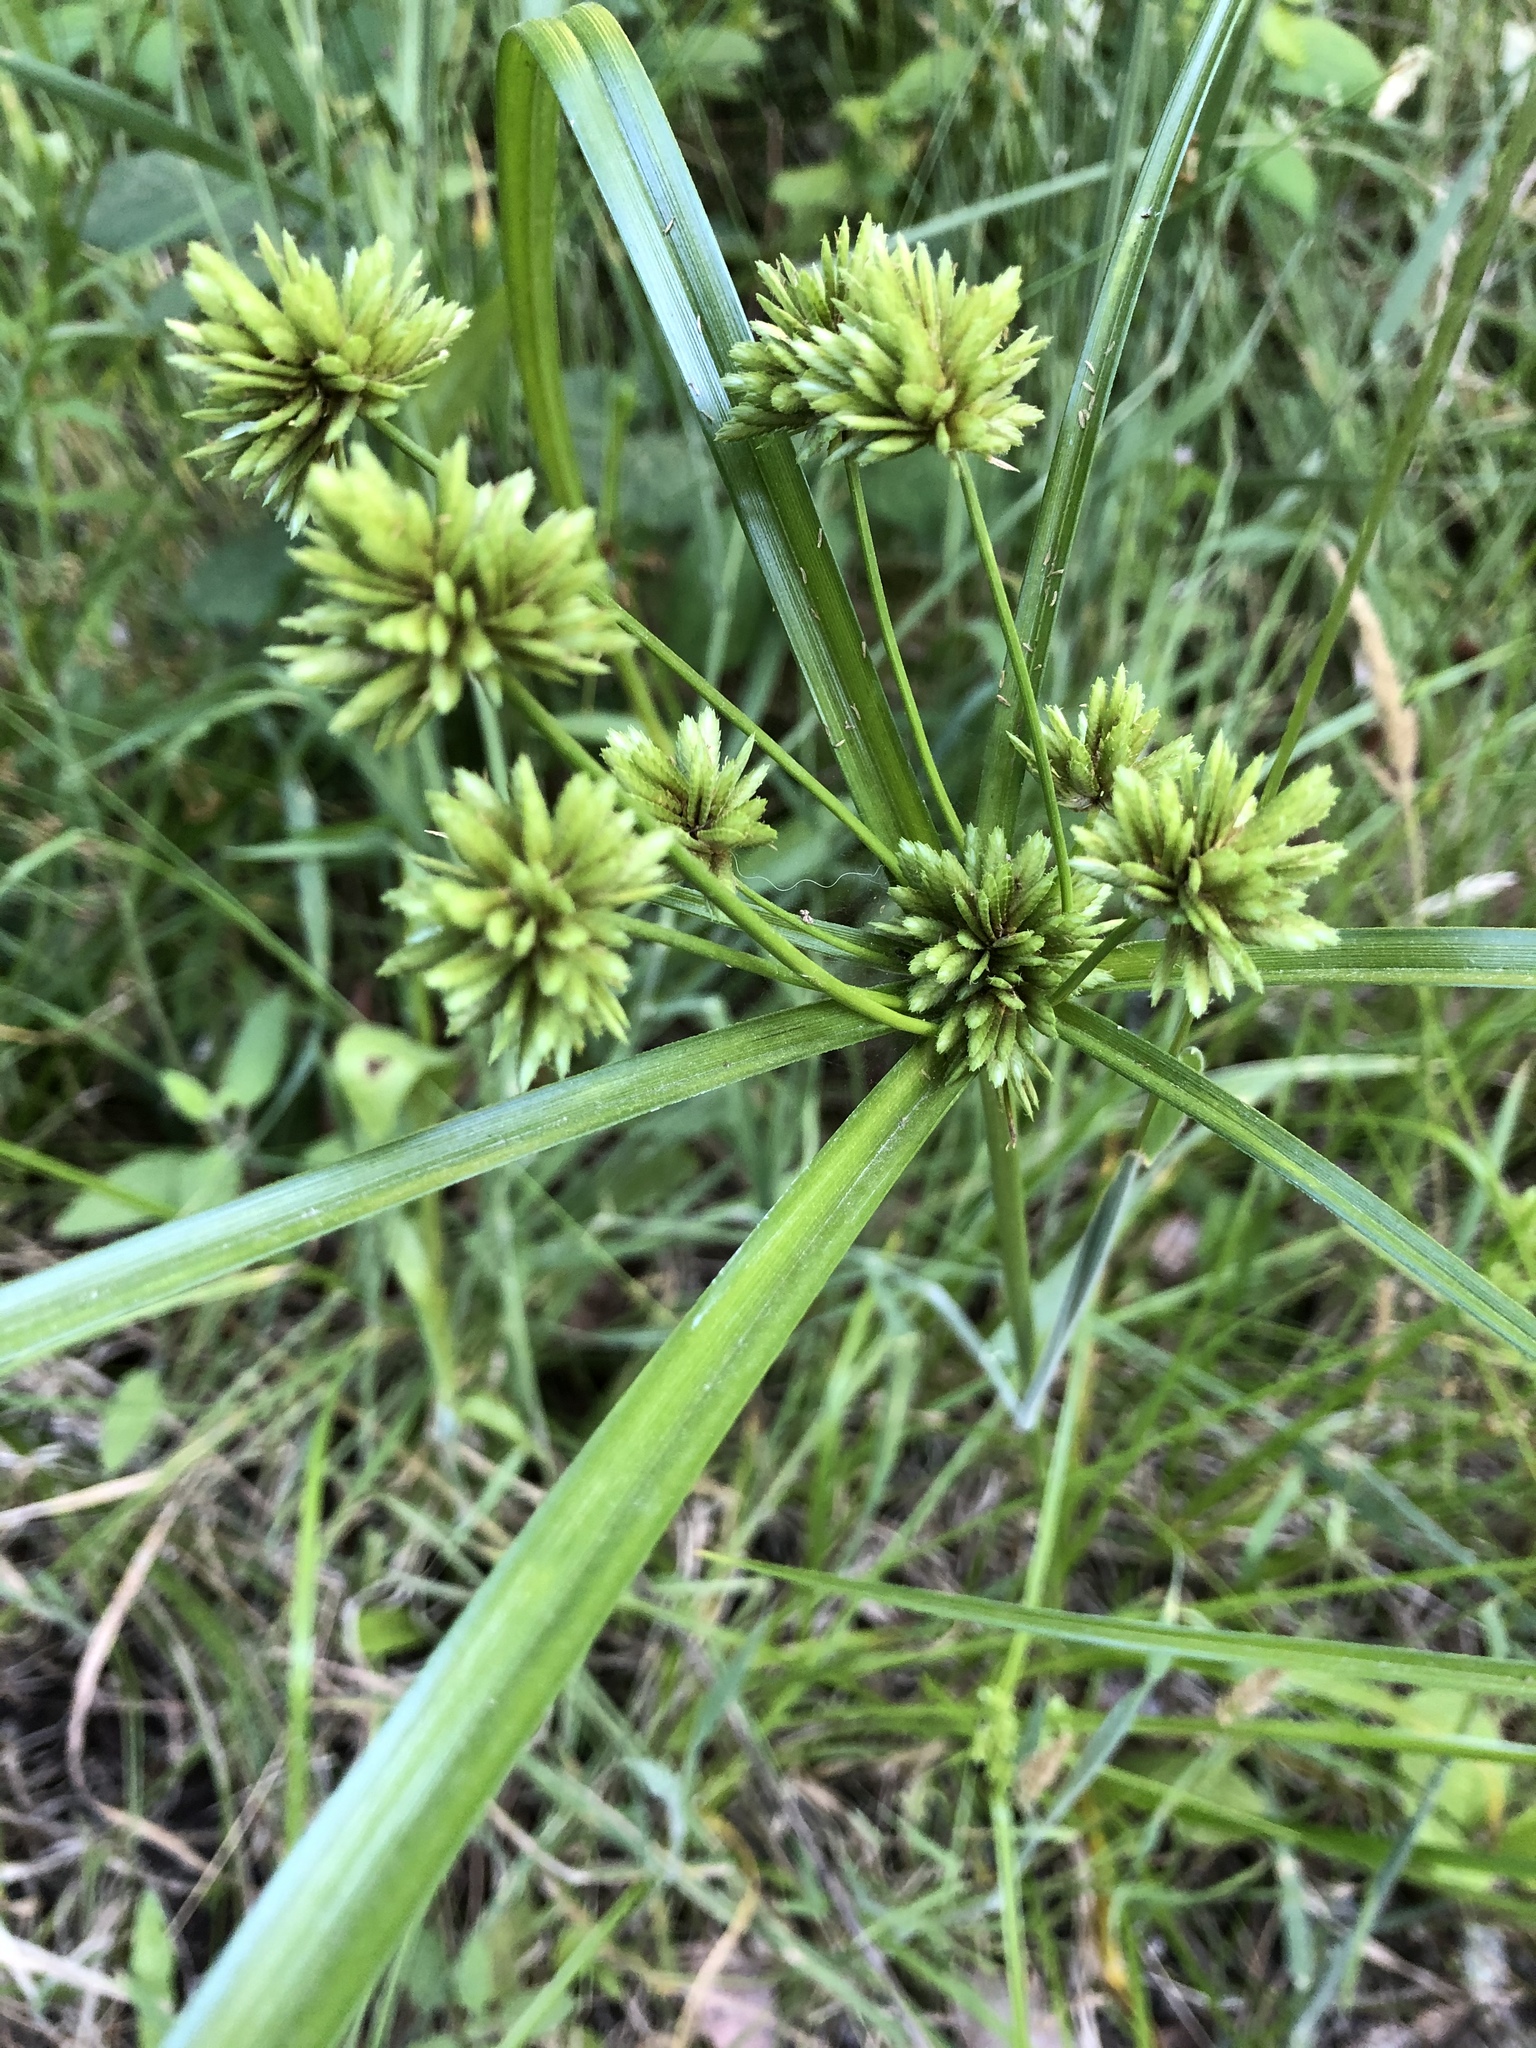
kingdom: Plantae
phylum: Tracheophyta
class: Liliopsida
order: Poales
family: Cyperaceae
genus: Cyperus
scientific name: Cyperus eragrostis
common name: Tall flatsedge
